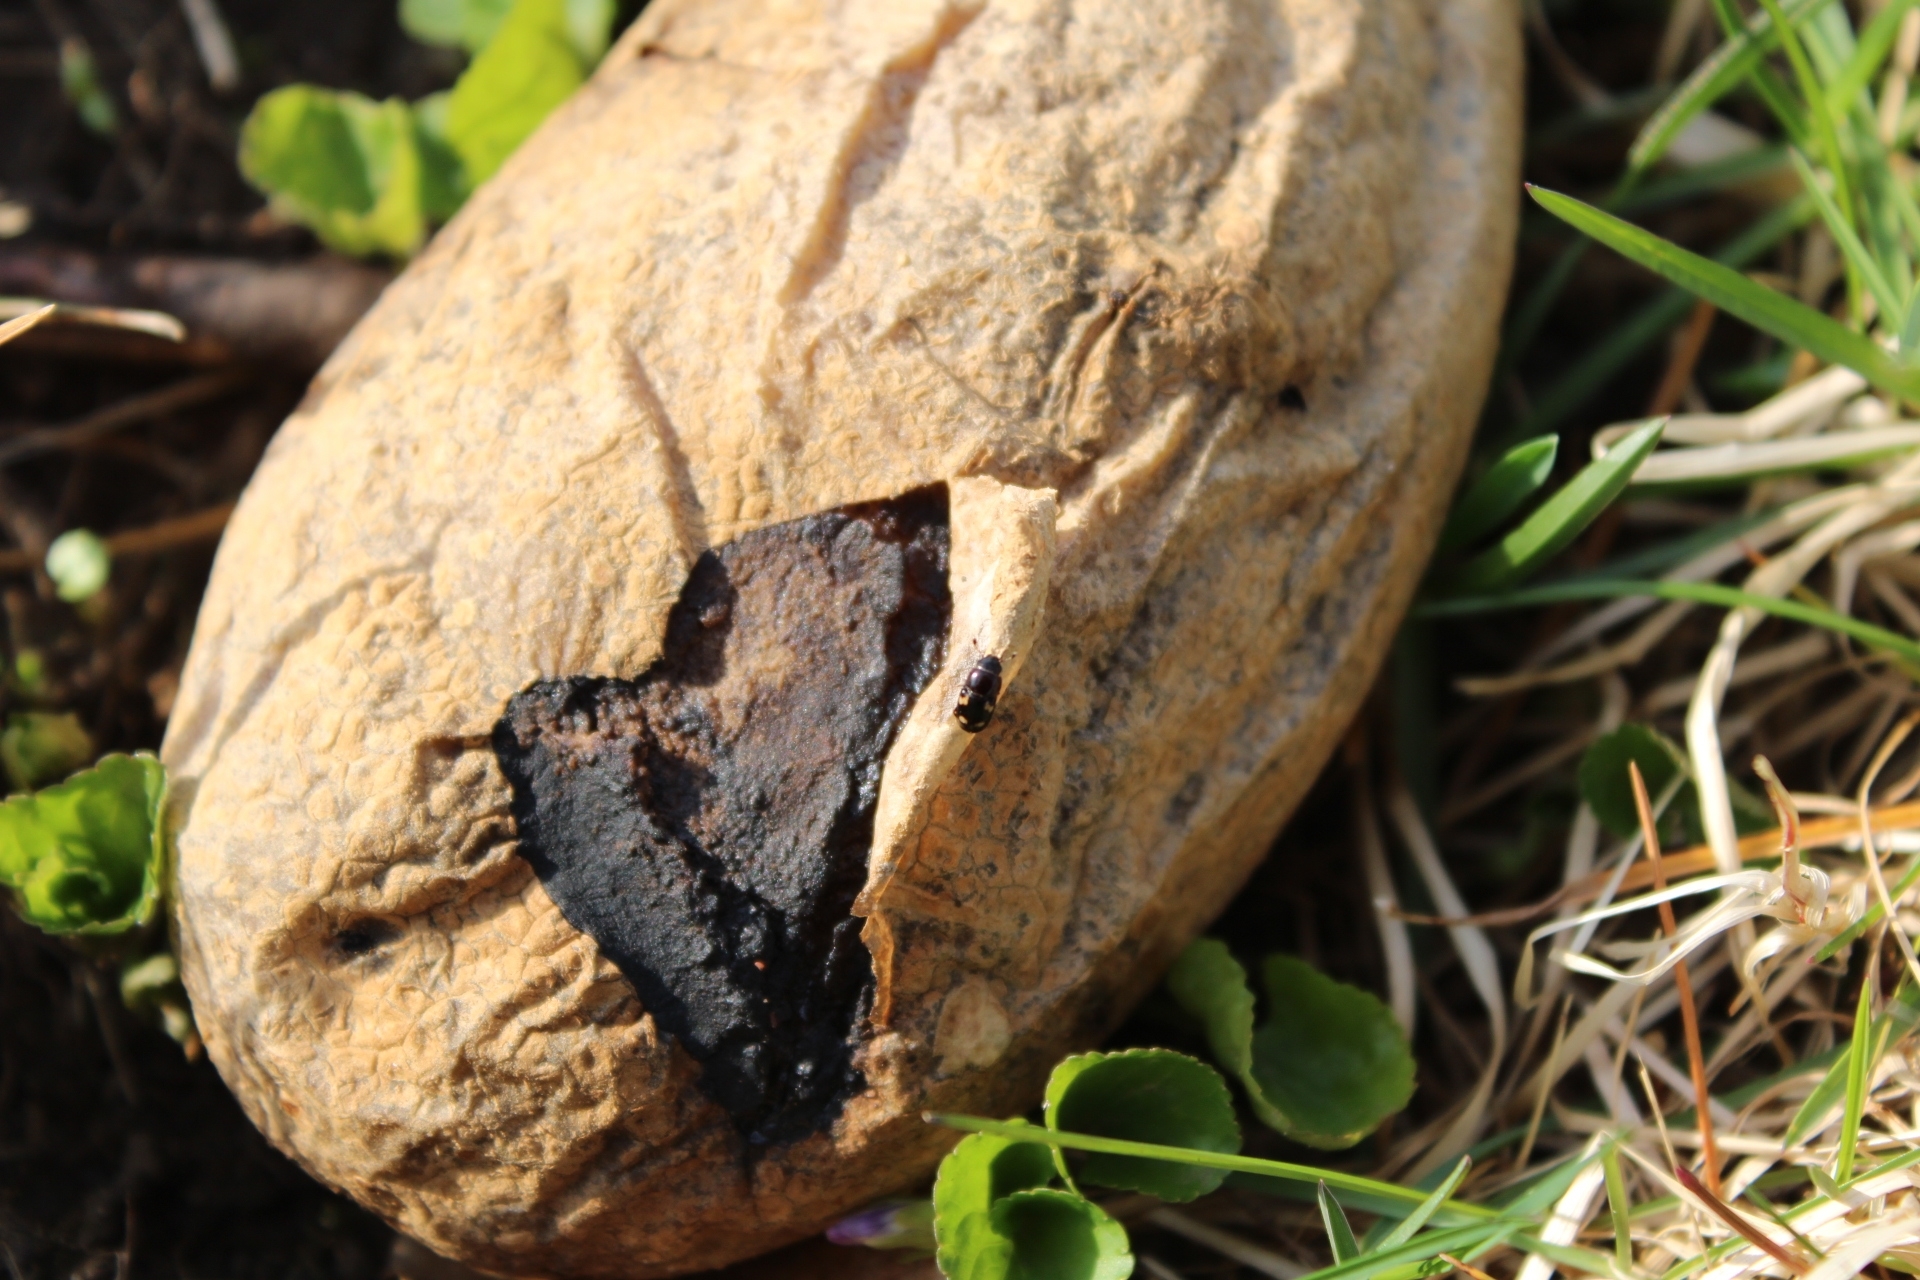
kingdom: Animalia
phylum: Arthropoda
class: Insecta
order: Coleoptera
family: Nitidulidae
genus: Glischrochilus
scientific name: Glischrochilus quadrisignatus
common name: Picnic beetle
